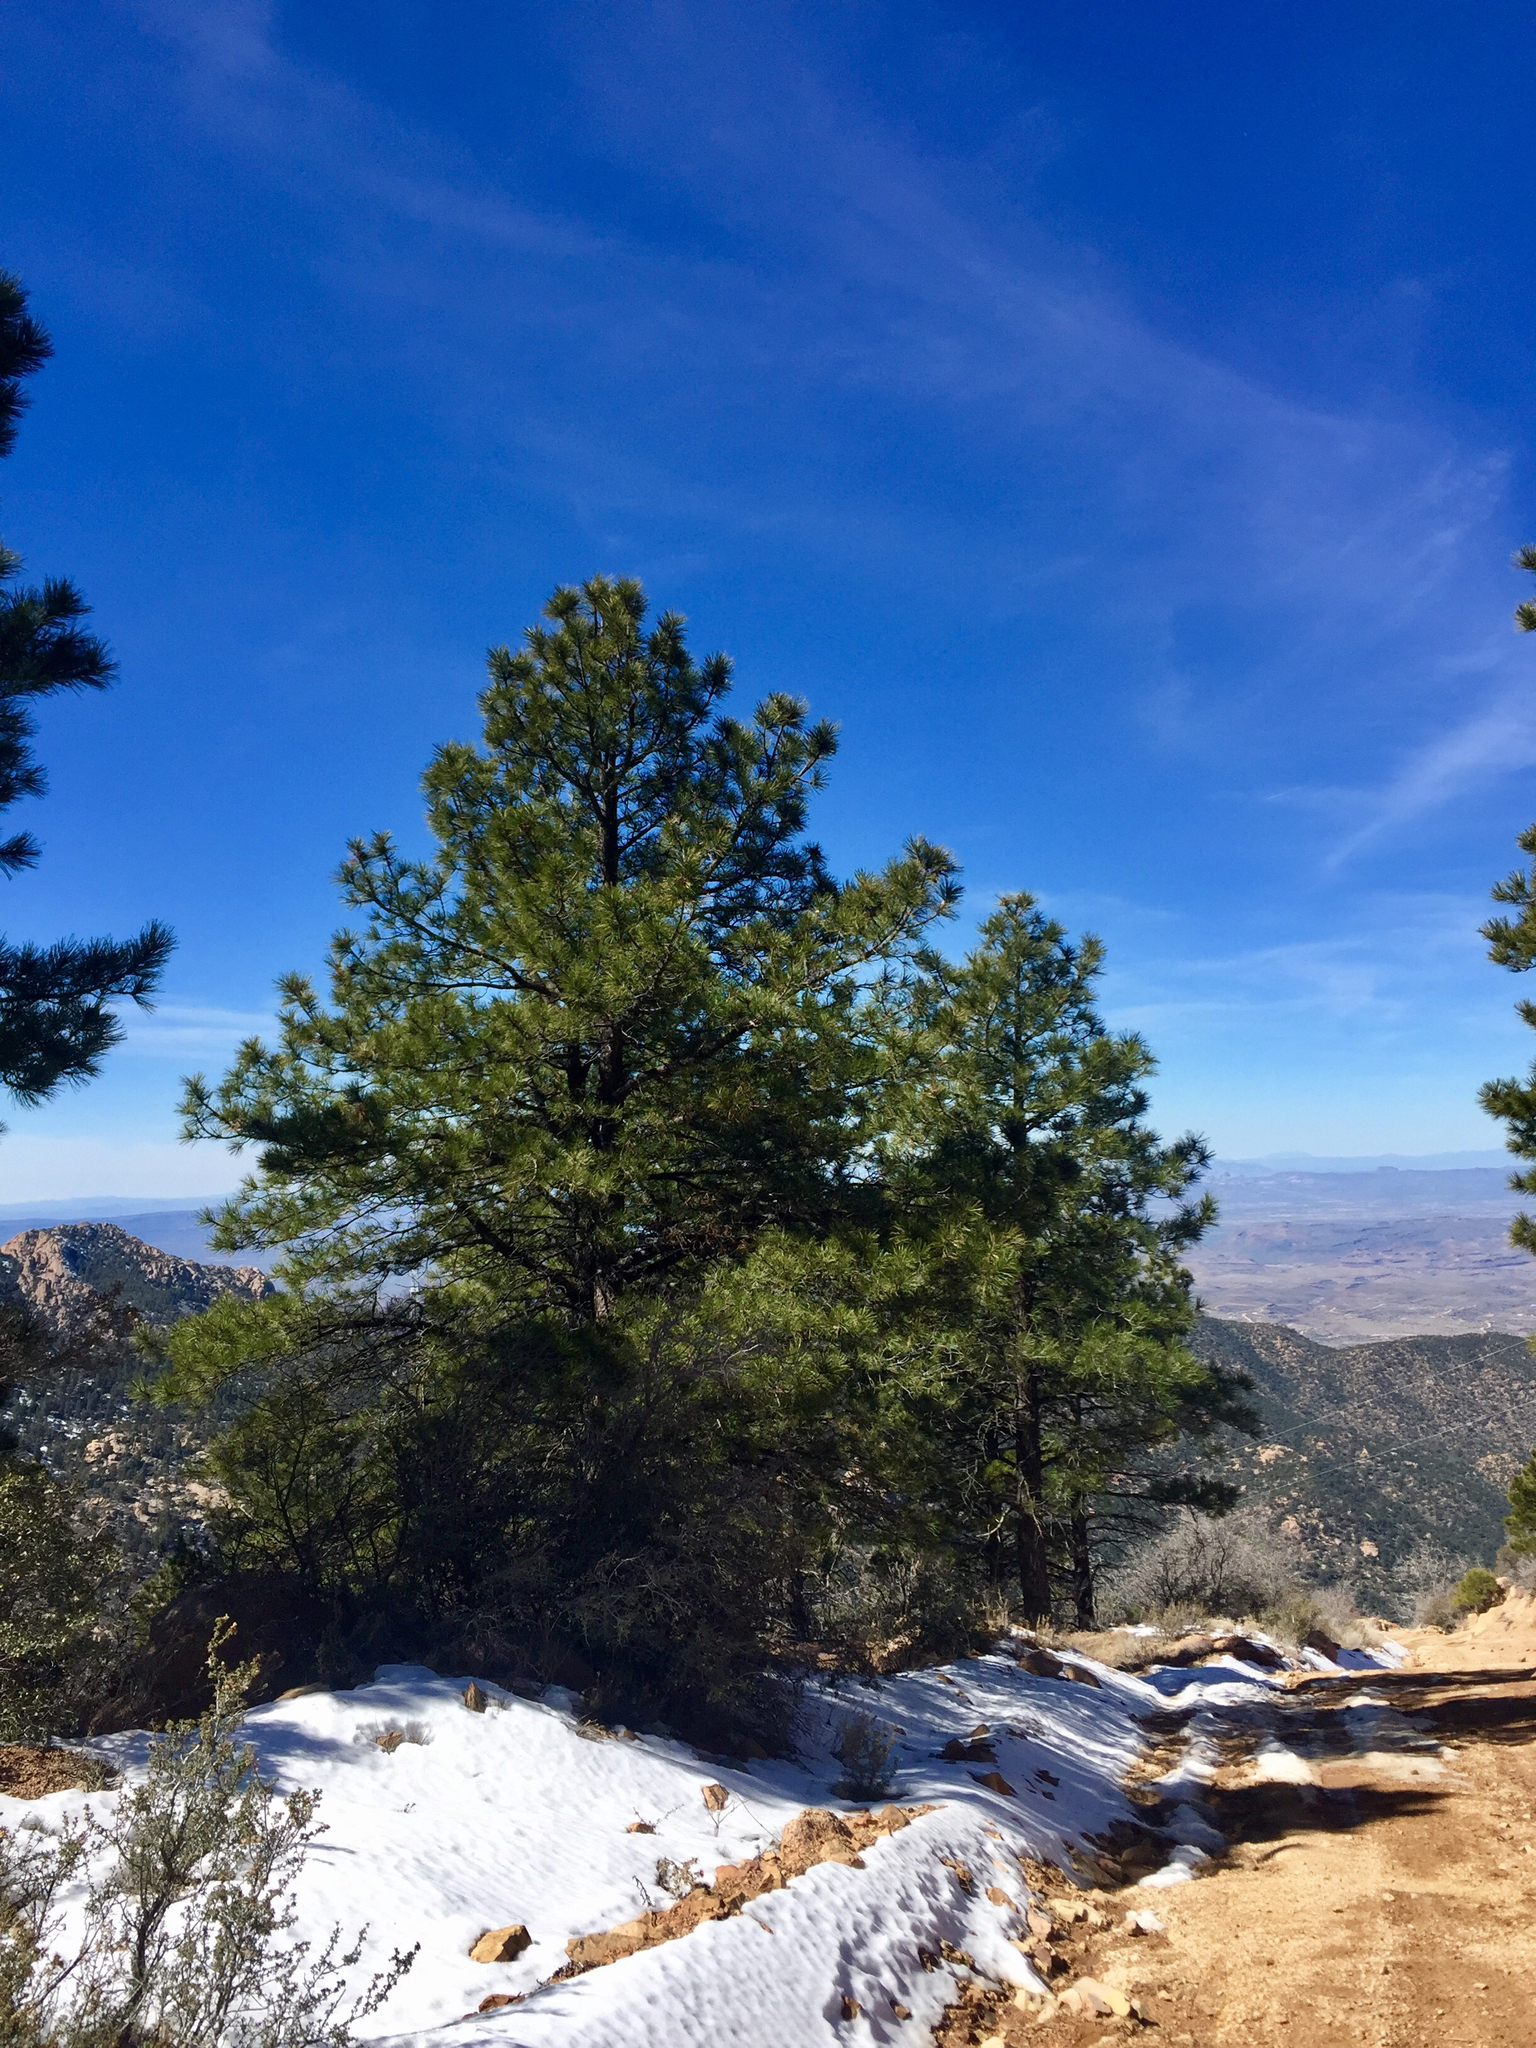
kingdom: Plantae
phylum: Tracheophyta
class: Pinopsida
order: Pinales
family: Pinaceae
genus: Pinus
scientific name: Pinus ponderosa
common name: Western yellow-pine
